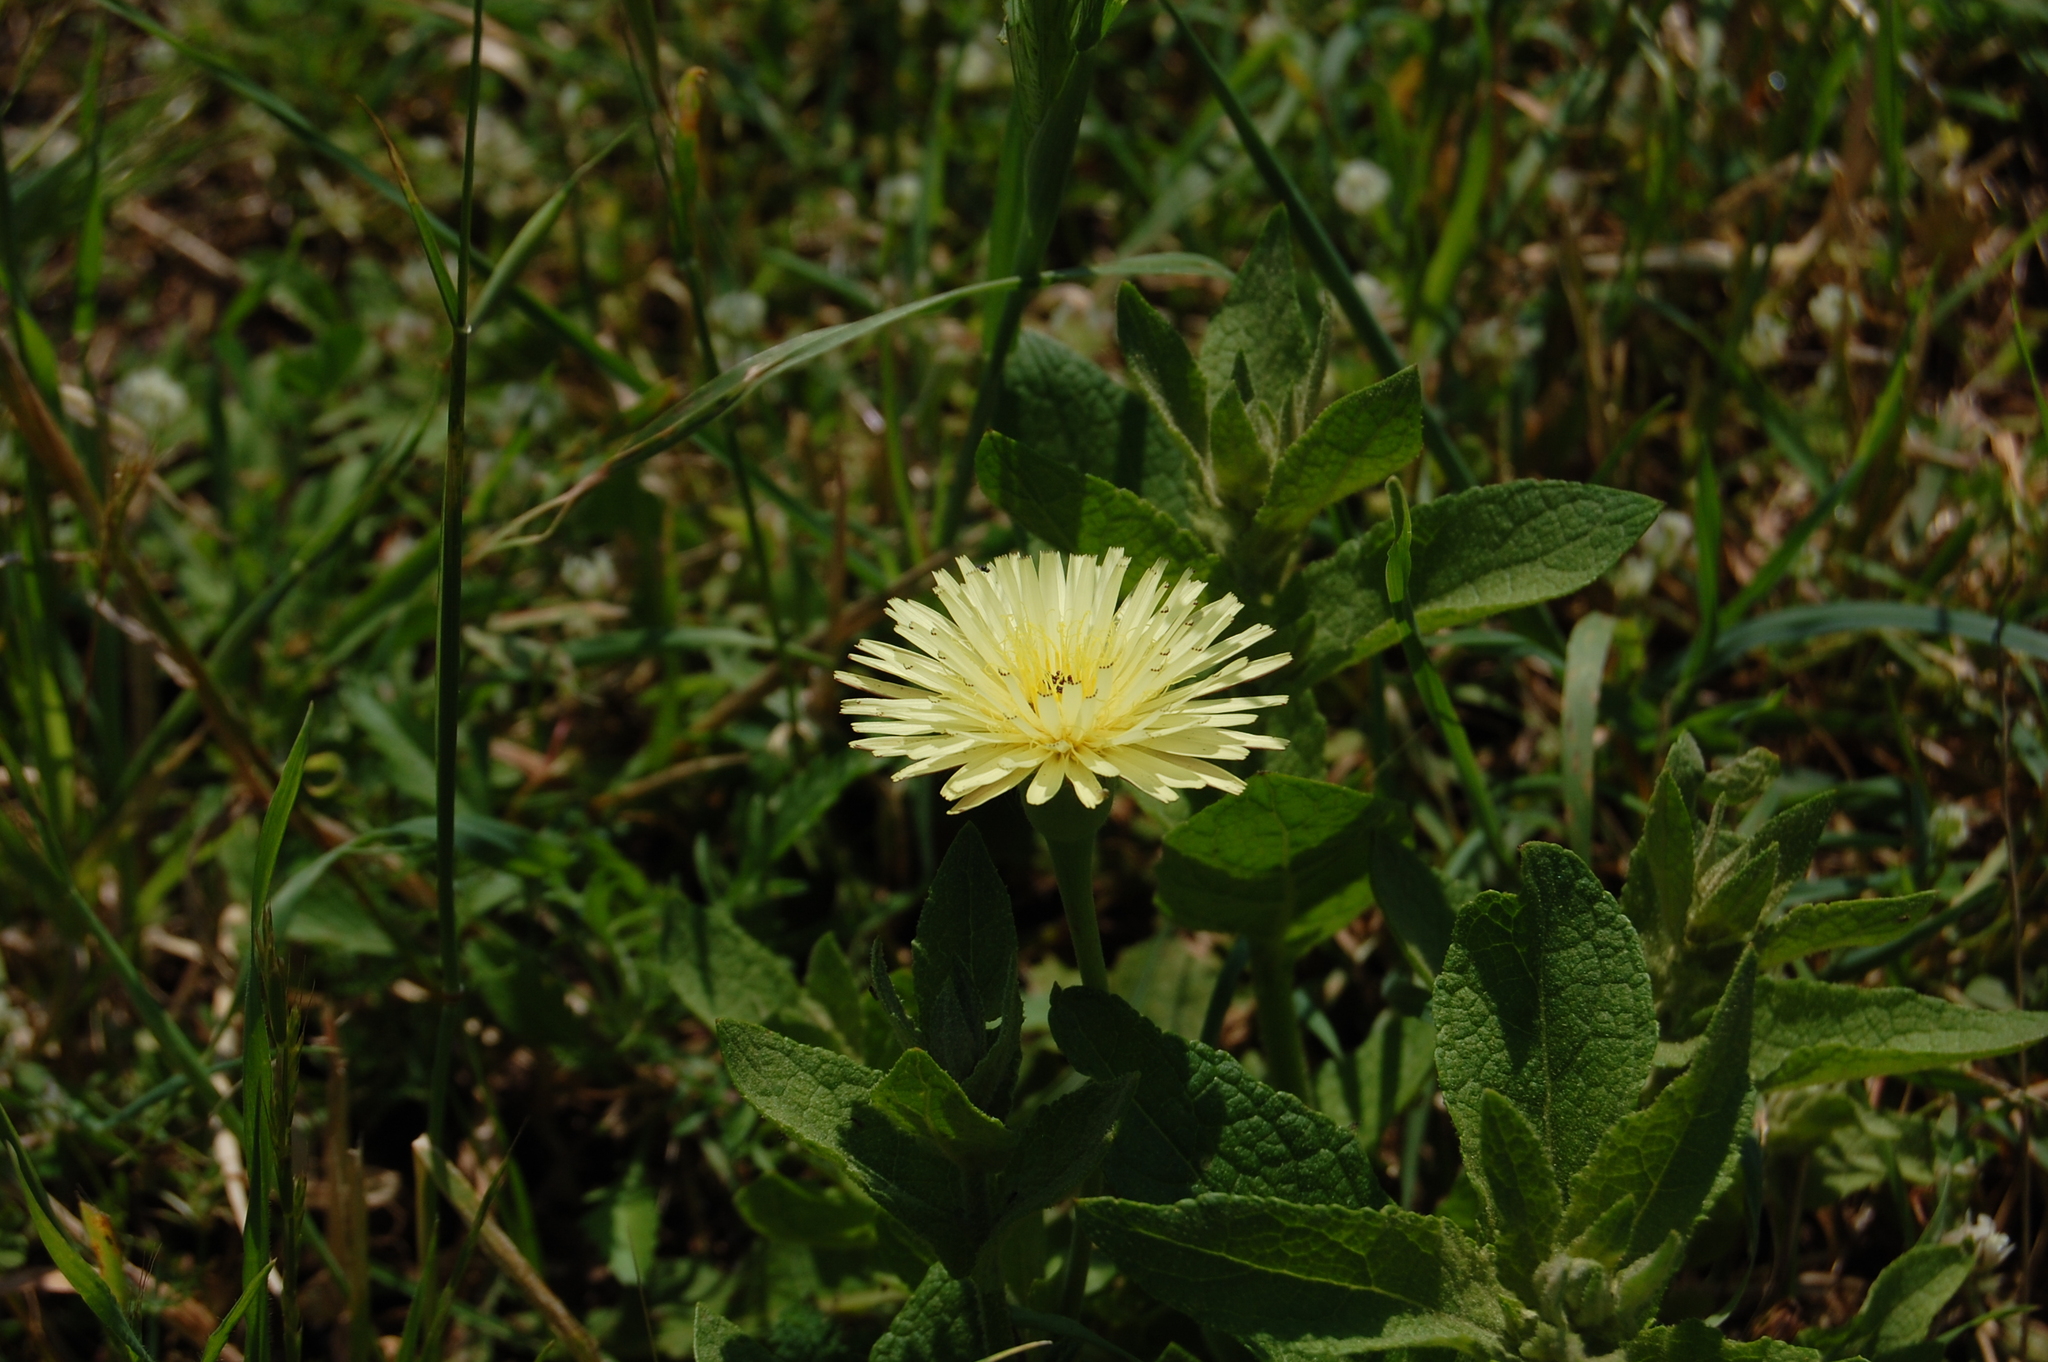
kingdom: Plantae
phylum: Tracheophyta
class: Magnoliopsida
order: Asterales
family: Asteraceae
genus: Urospermum
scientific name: Urospermum dalechampii
